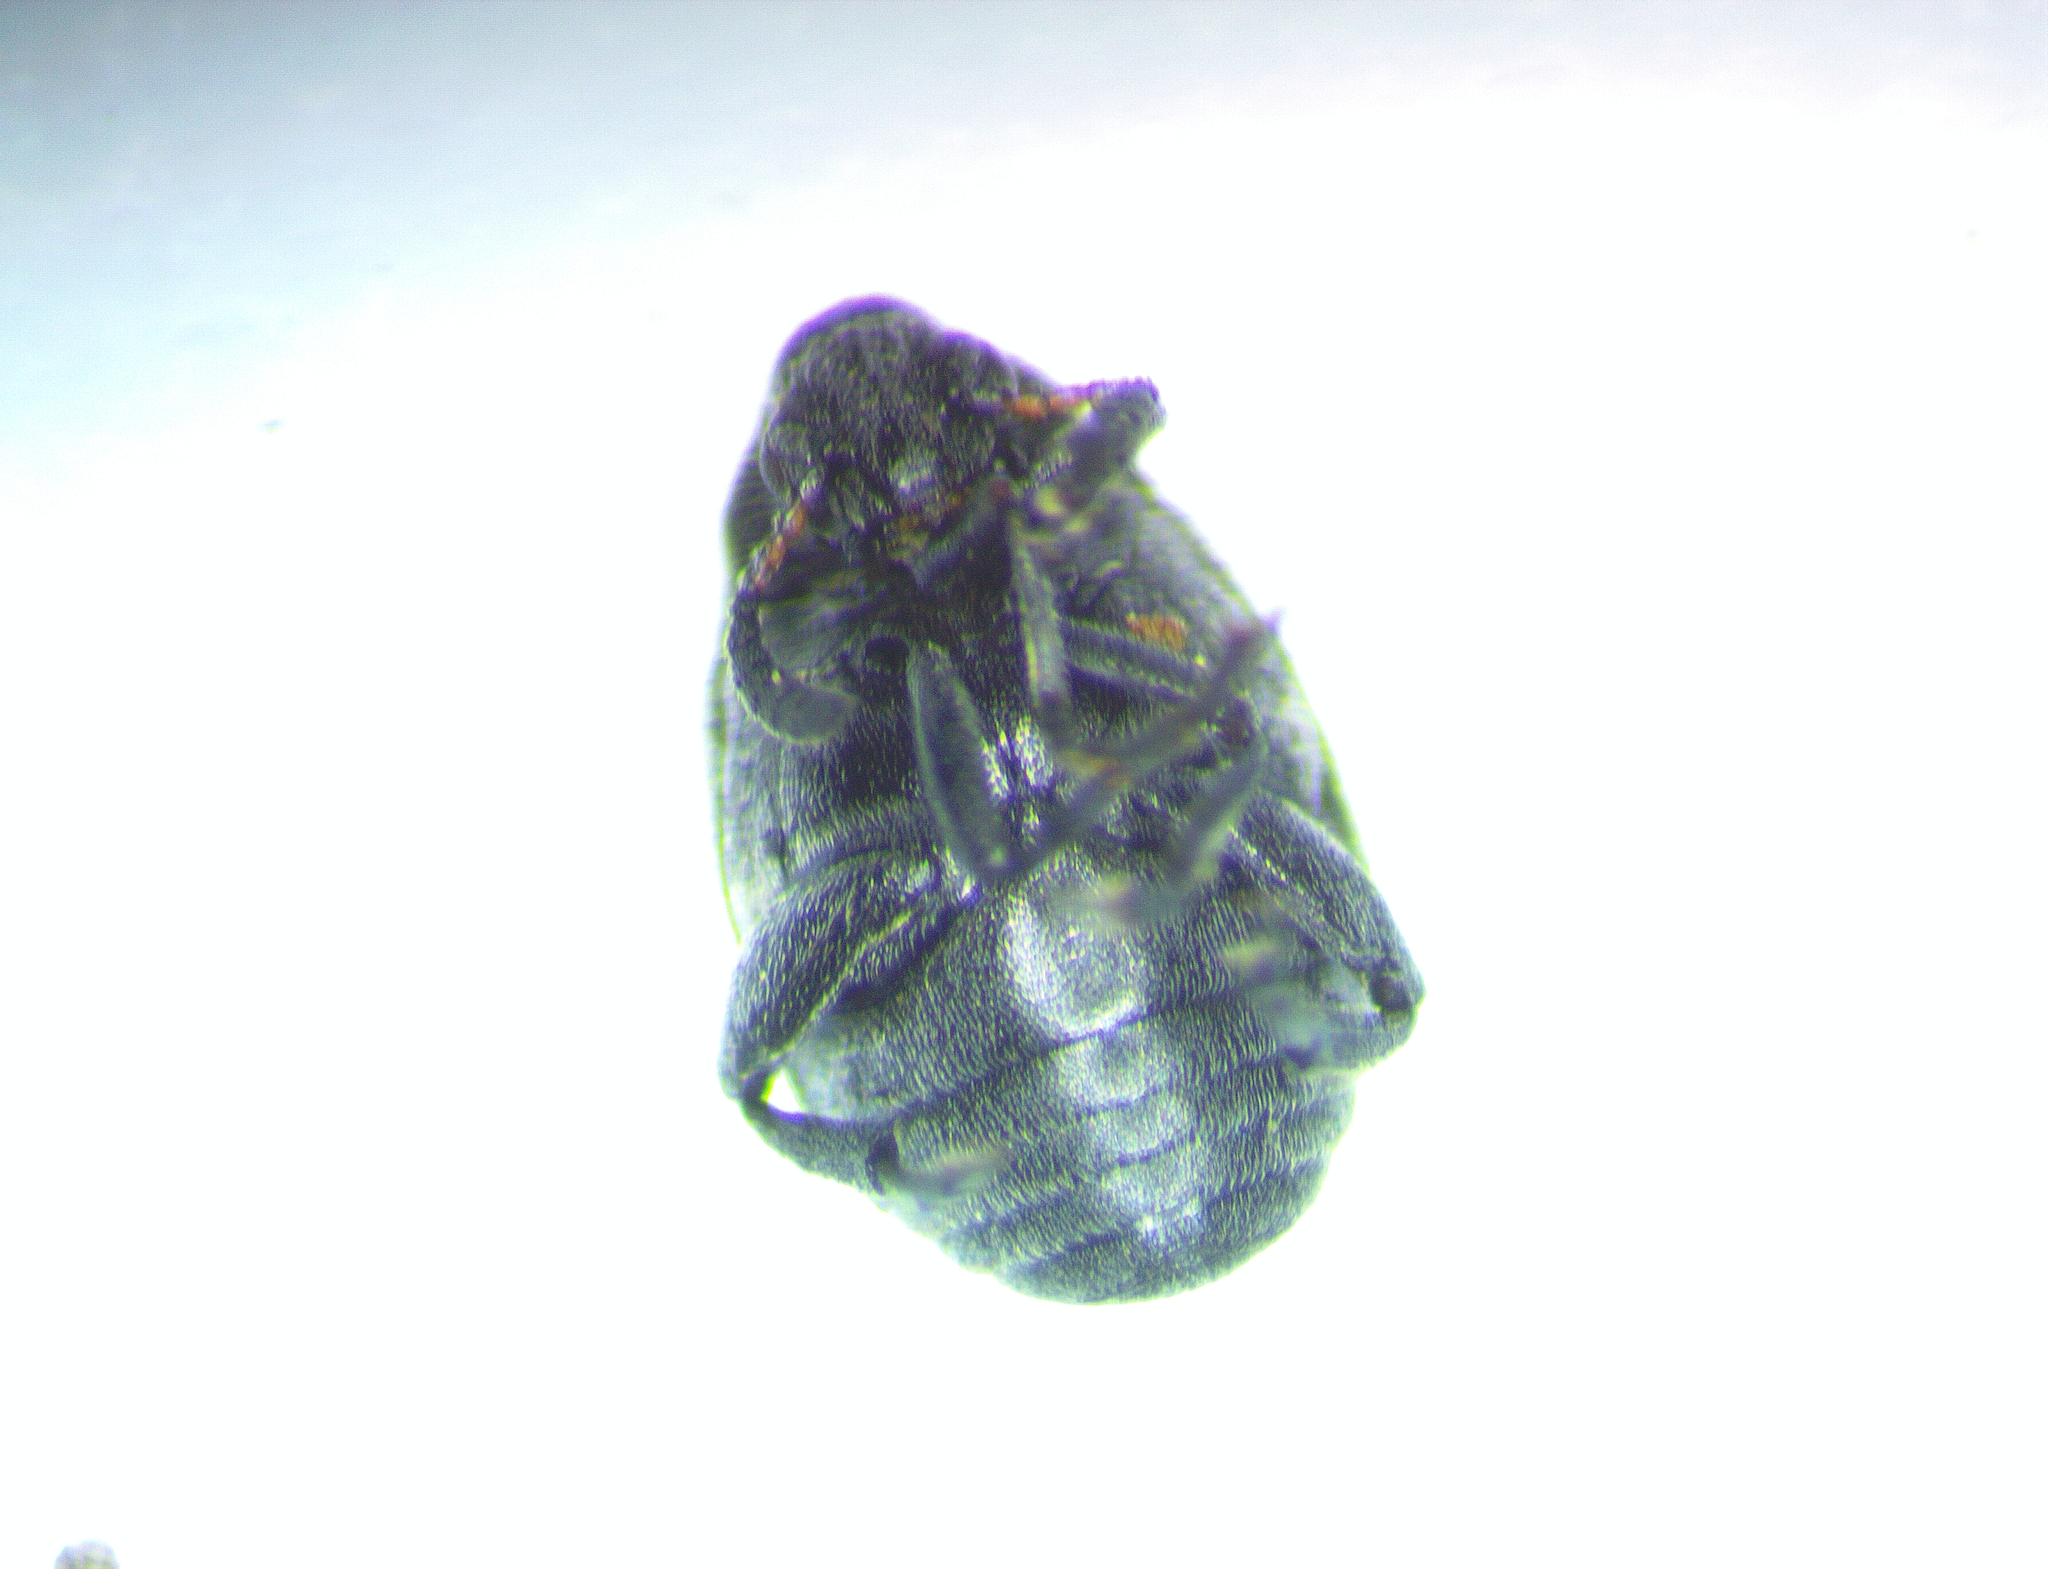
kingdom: Animalia
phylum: Arthropoda
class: Insecta
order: Coleoptera
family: Chrysomelidae
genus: Bruchidius
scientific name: Bruchidius villosus
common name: Scotch broom bruchid
